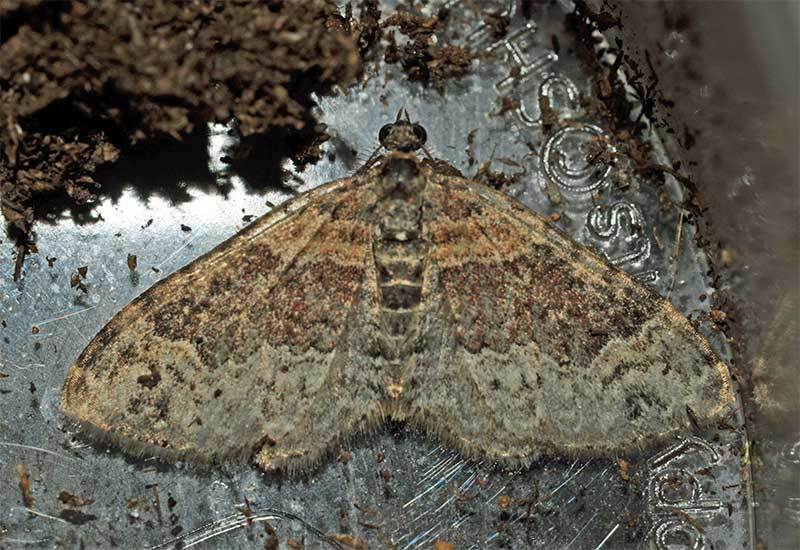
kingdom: Animalia
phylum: Arthropoda
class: Insecta
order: Lepidoptera
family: Geometridae
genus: Xanthorhoe
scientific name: Xanthorhoe ferrugata
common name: Dark-barred twin-spot carpet
